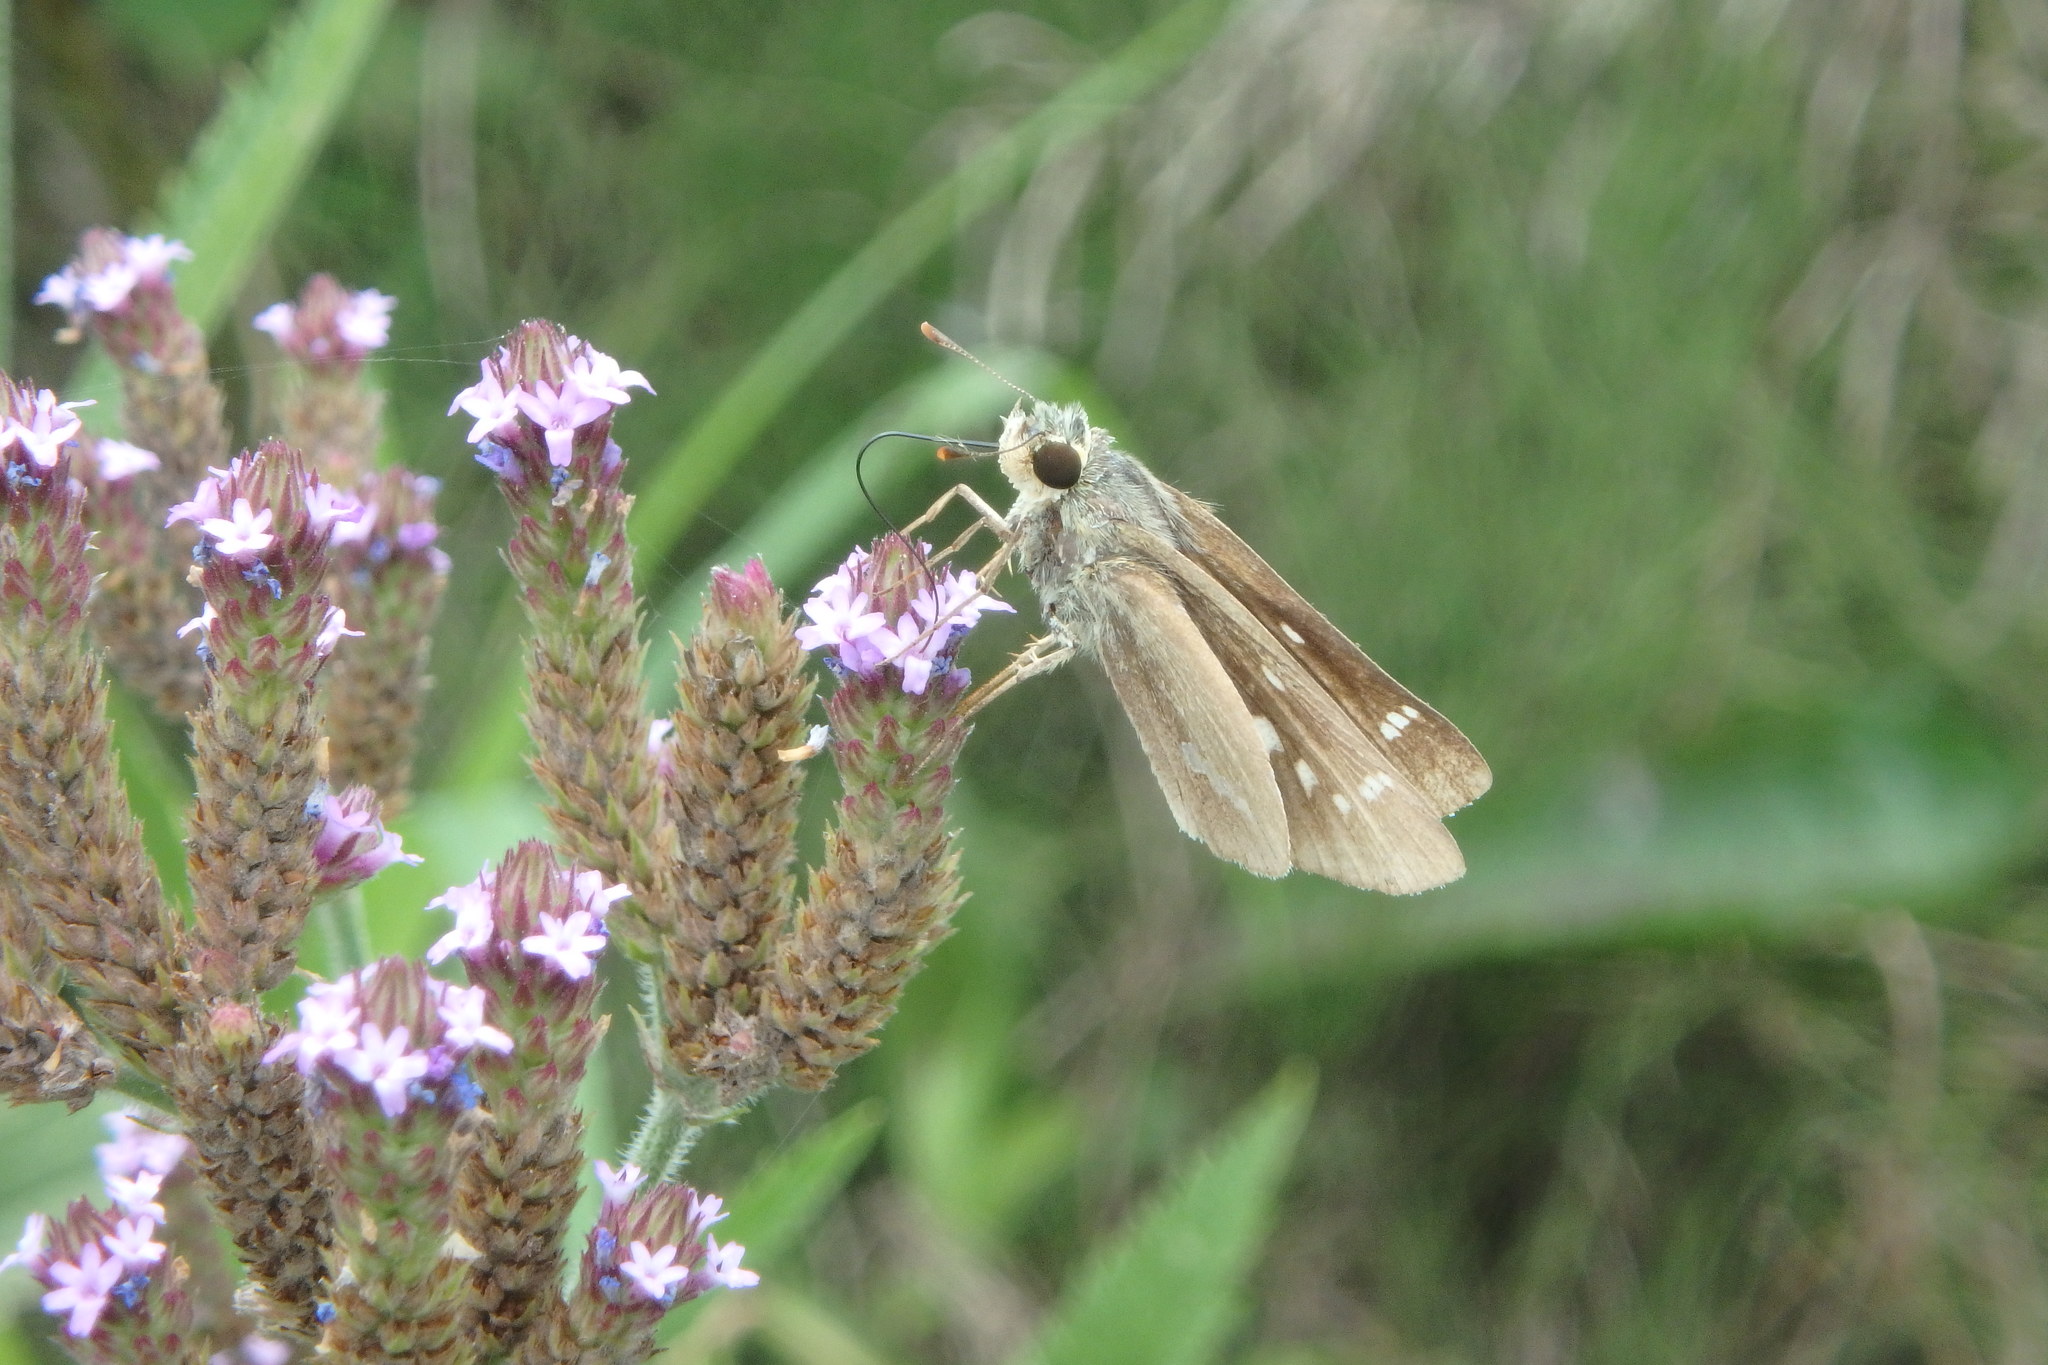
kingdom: Animalia
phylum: Arthropoda
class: Insecta
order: Lepidoptera
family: Hesperiidae
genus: Parnara
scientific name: Parnara guttatus
